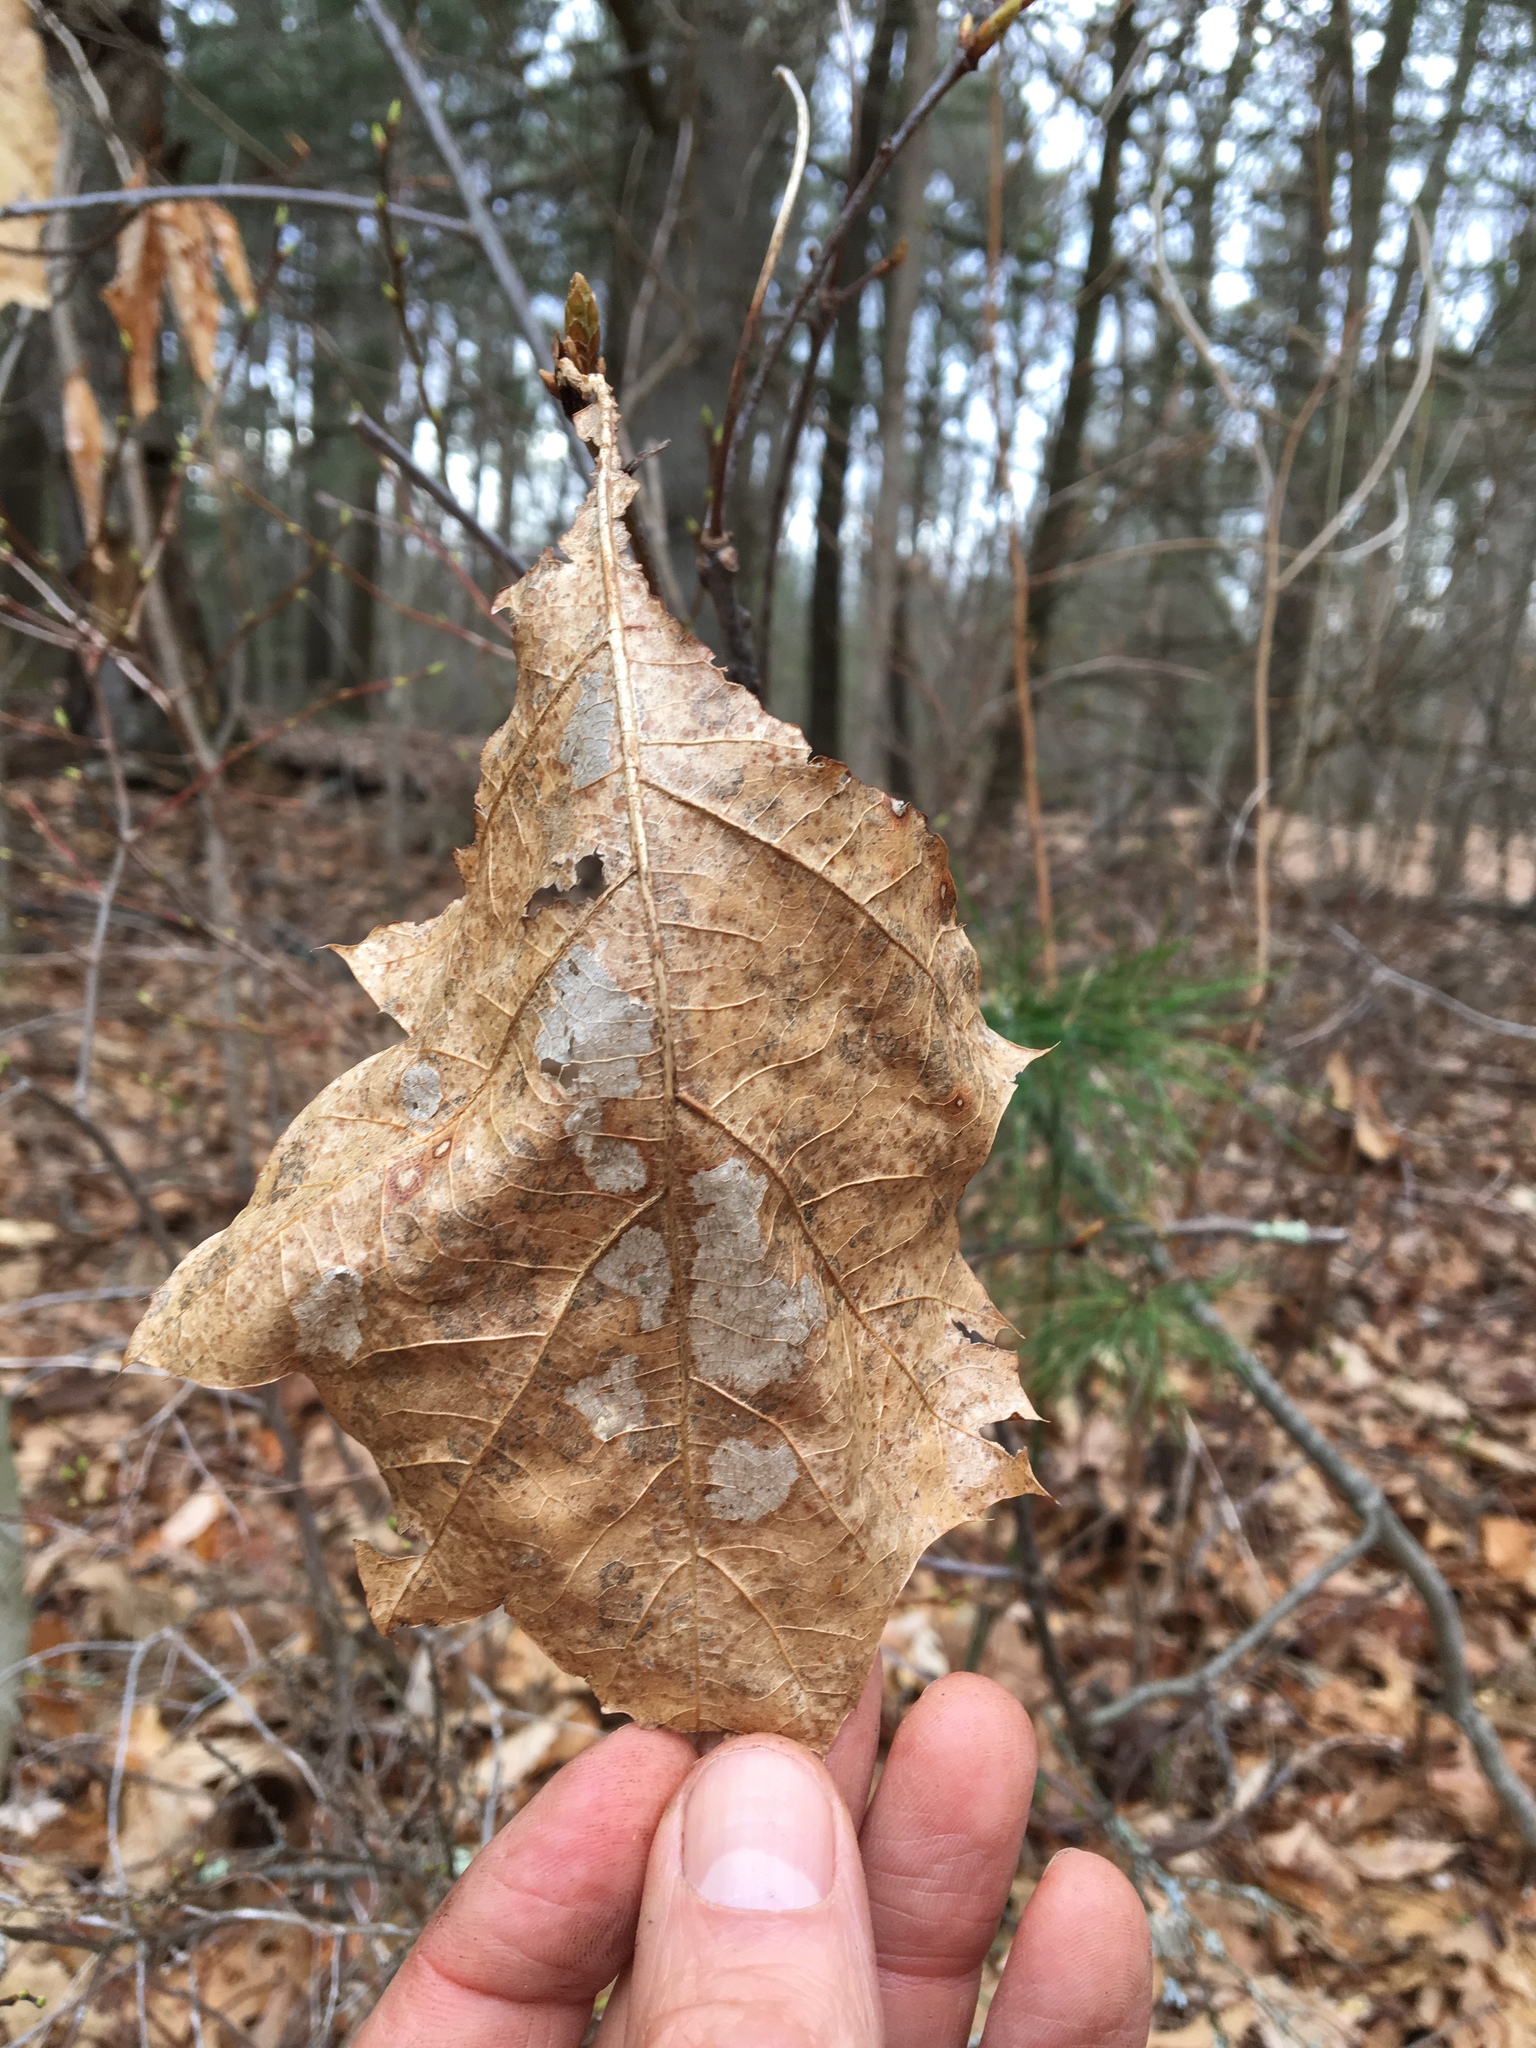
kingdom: Plantae
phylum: Tracheophyta
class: Magnoliopsida
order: Fagales
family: Fagaceae
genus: Quercus
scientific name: Quercus rubra
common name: Red oak
